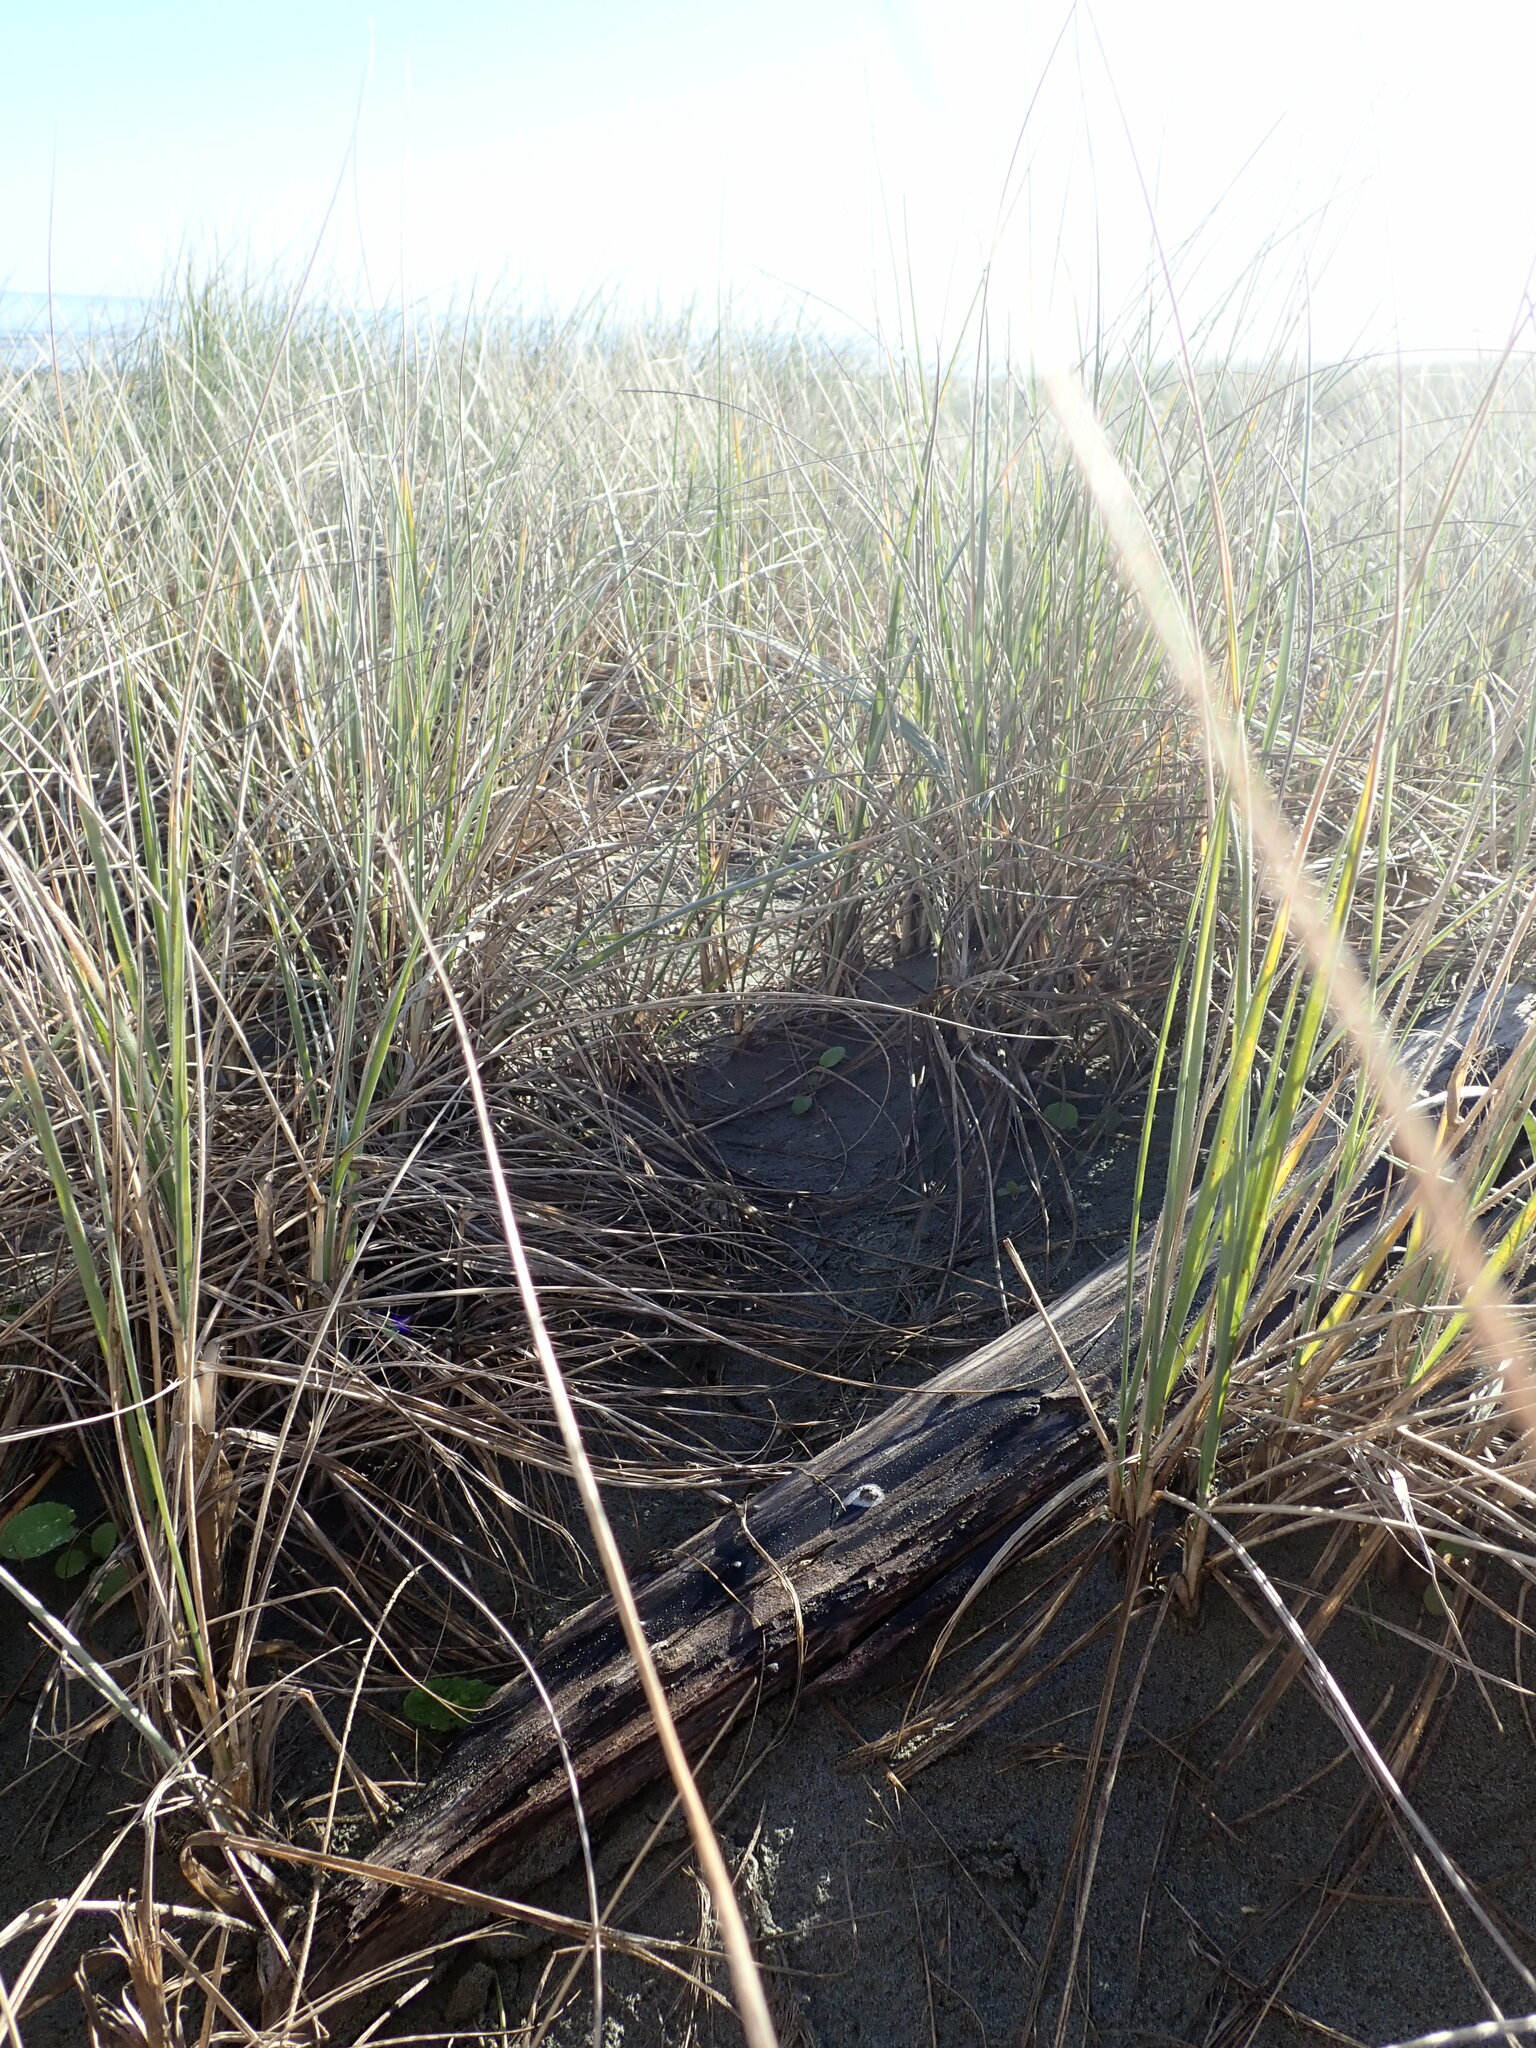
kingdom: Animalia
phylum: Arthropoda
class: Malacostraca
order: Isopoda
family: Porcellionidae
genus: Porcellio
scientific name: Porcellio scaber
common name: Common rough woodlouse
